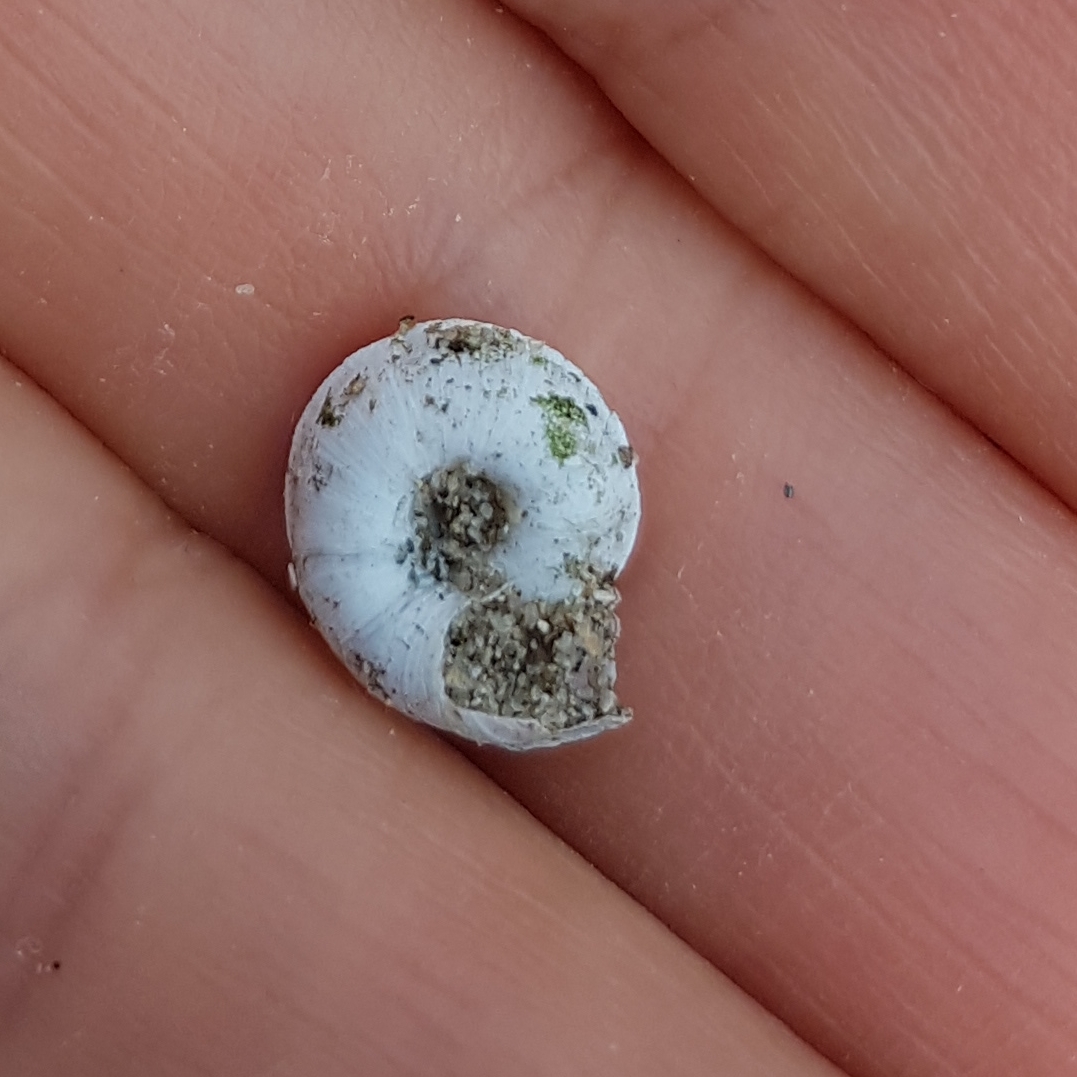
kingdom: Animalia
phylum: Mollusca
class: Gastropoda
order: Stylommatophora
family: Geomitridae
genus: Xerosecta
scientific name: Xerosecta explanata
